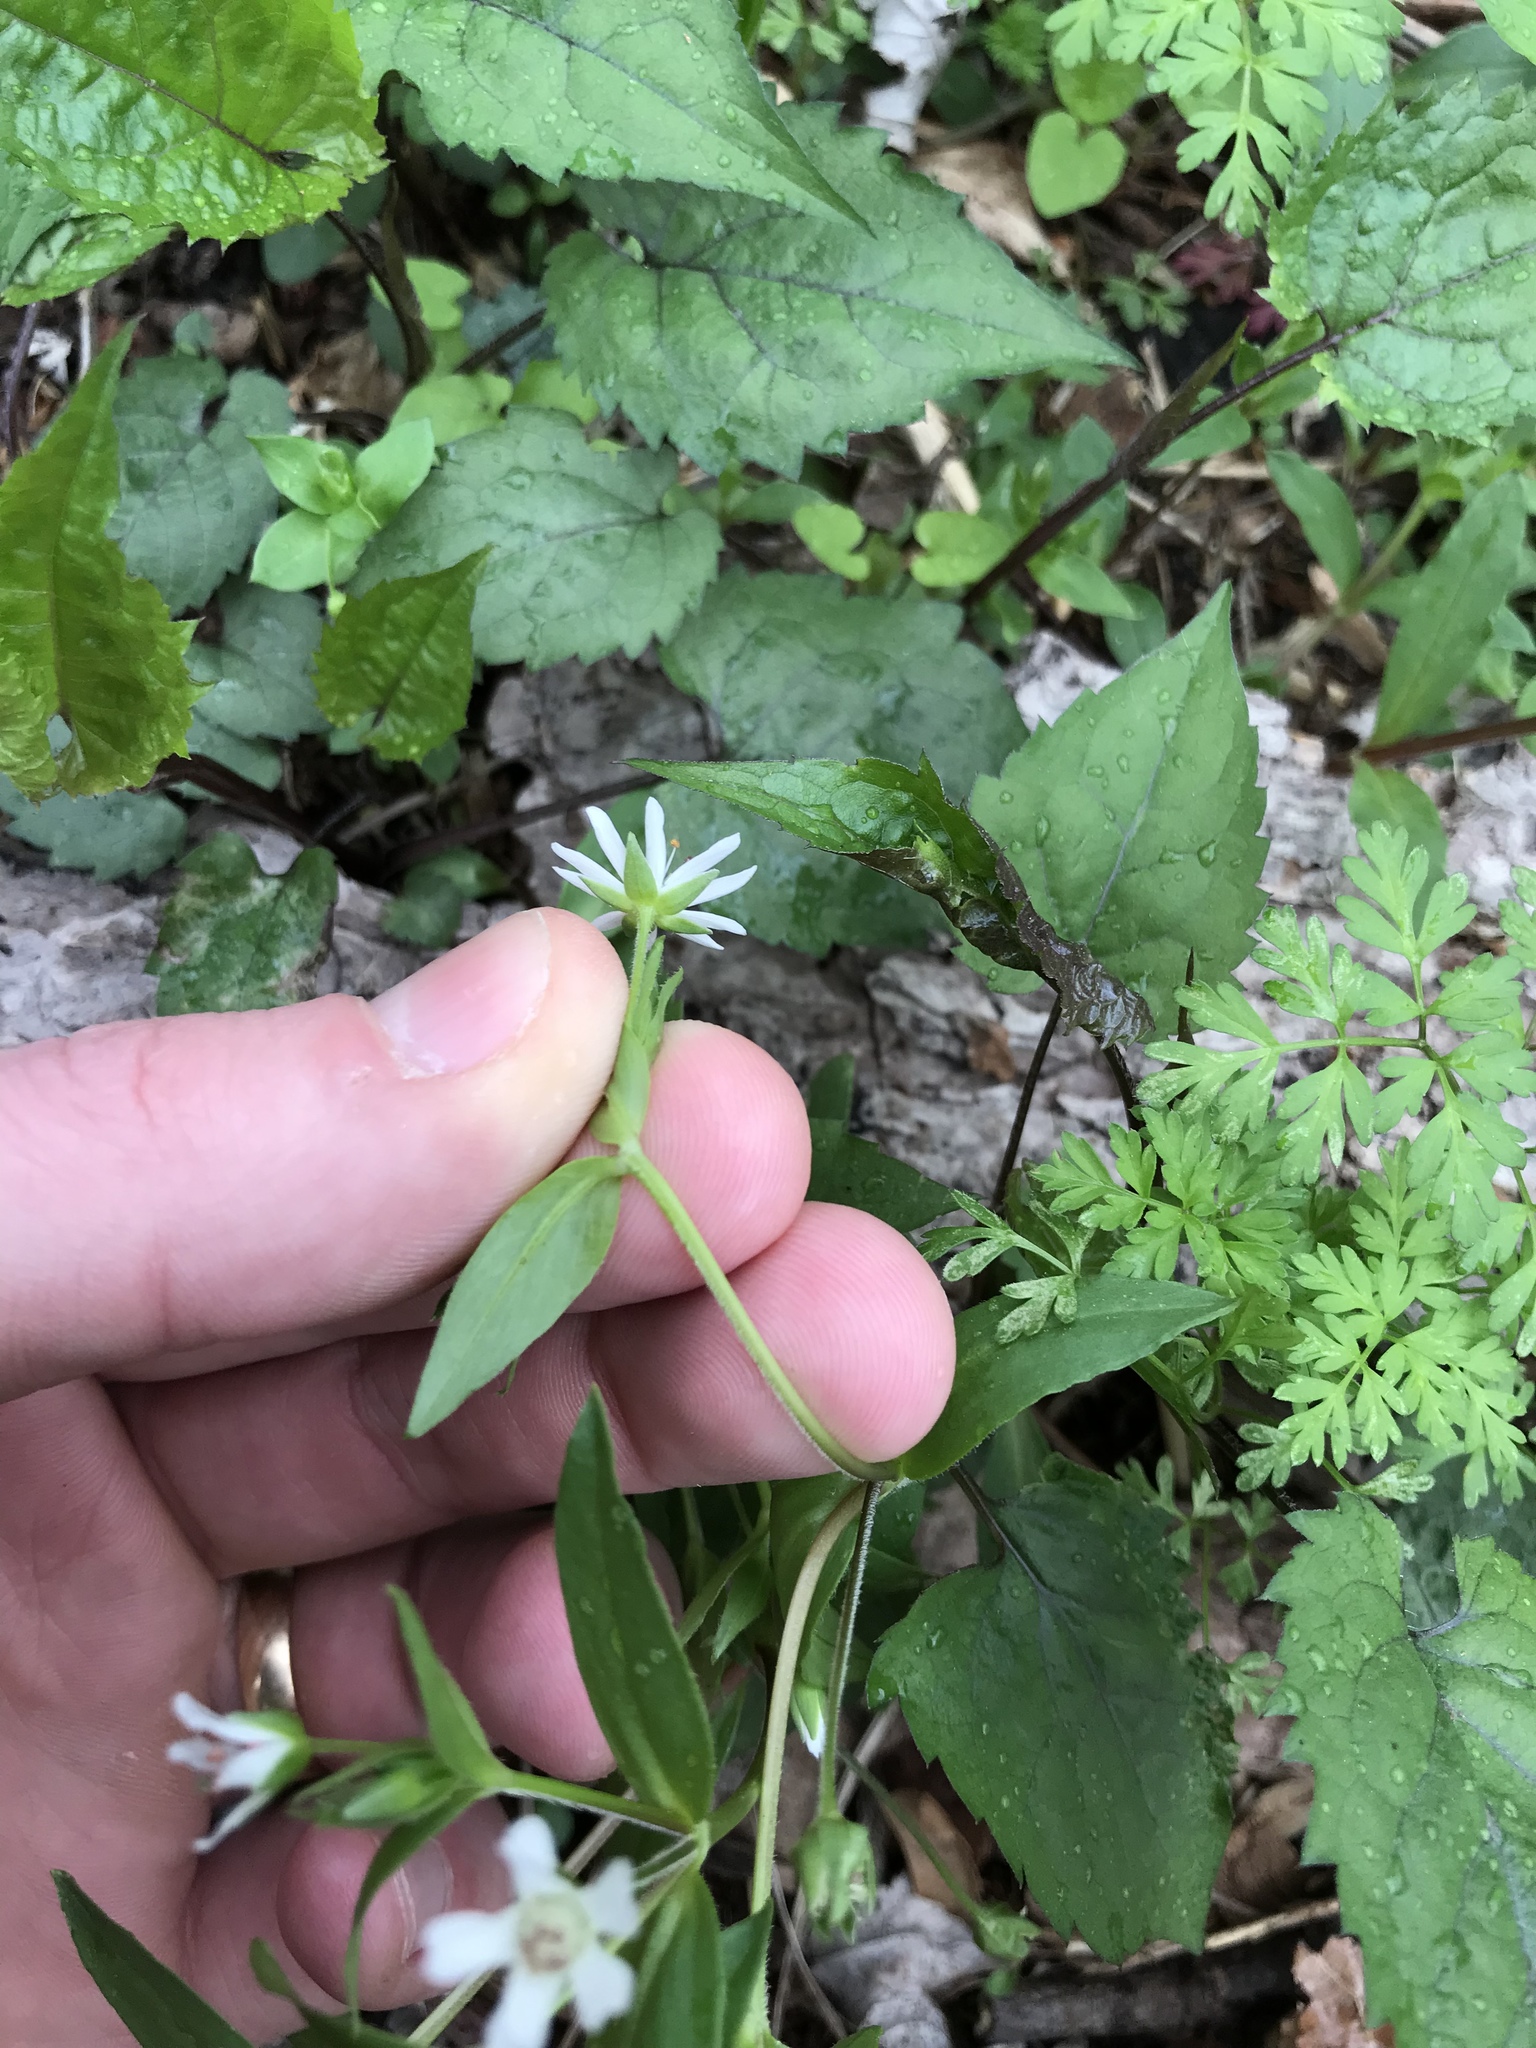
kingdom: Plantae
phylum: Tracheophyta
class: Magnoliopsida
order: Caryophyllales
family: Caryophyllaceae
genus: Stellaria
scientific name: Stellaria pubera
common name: Star chickweed
